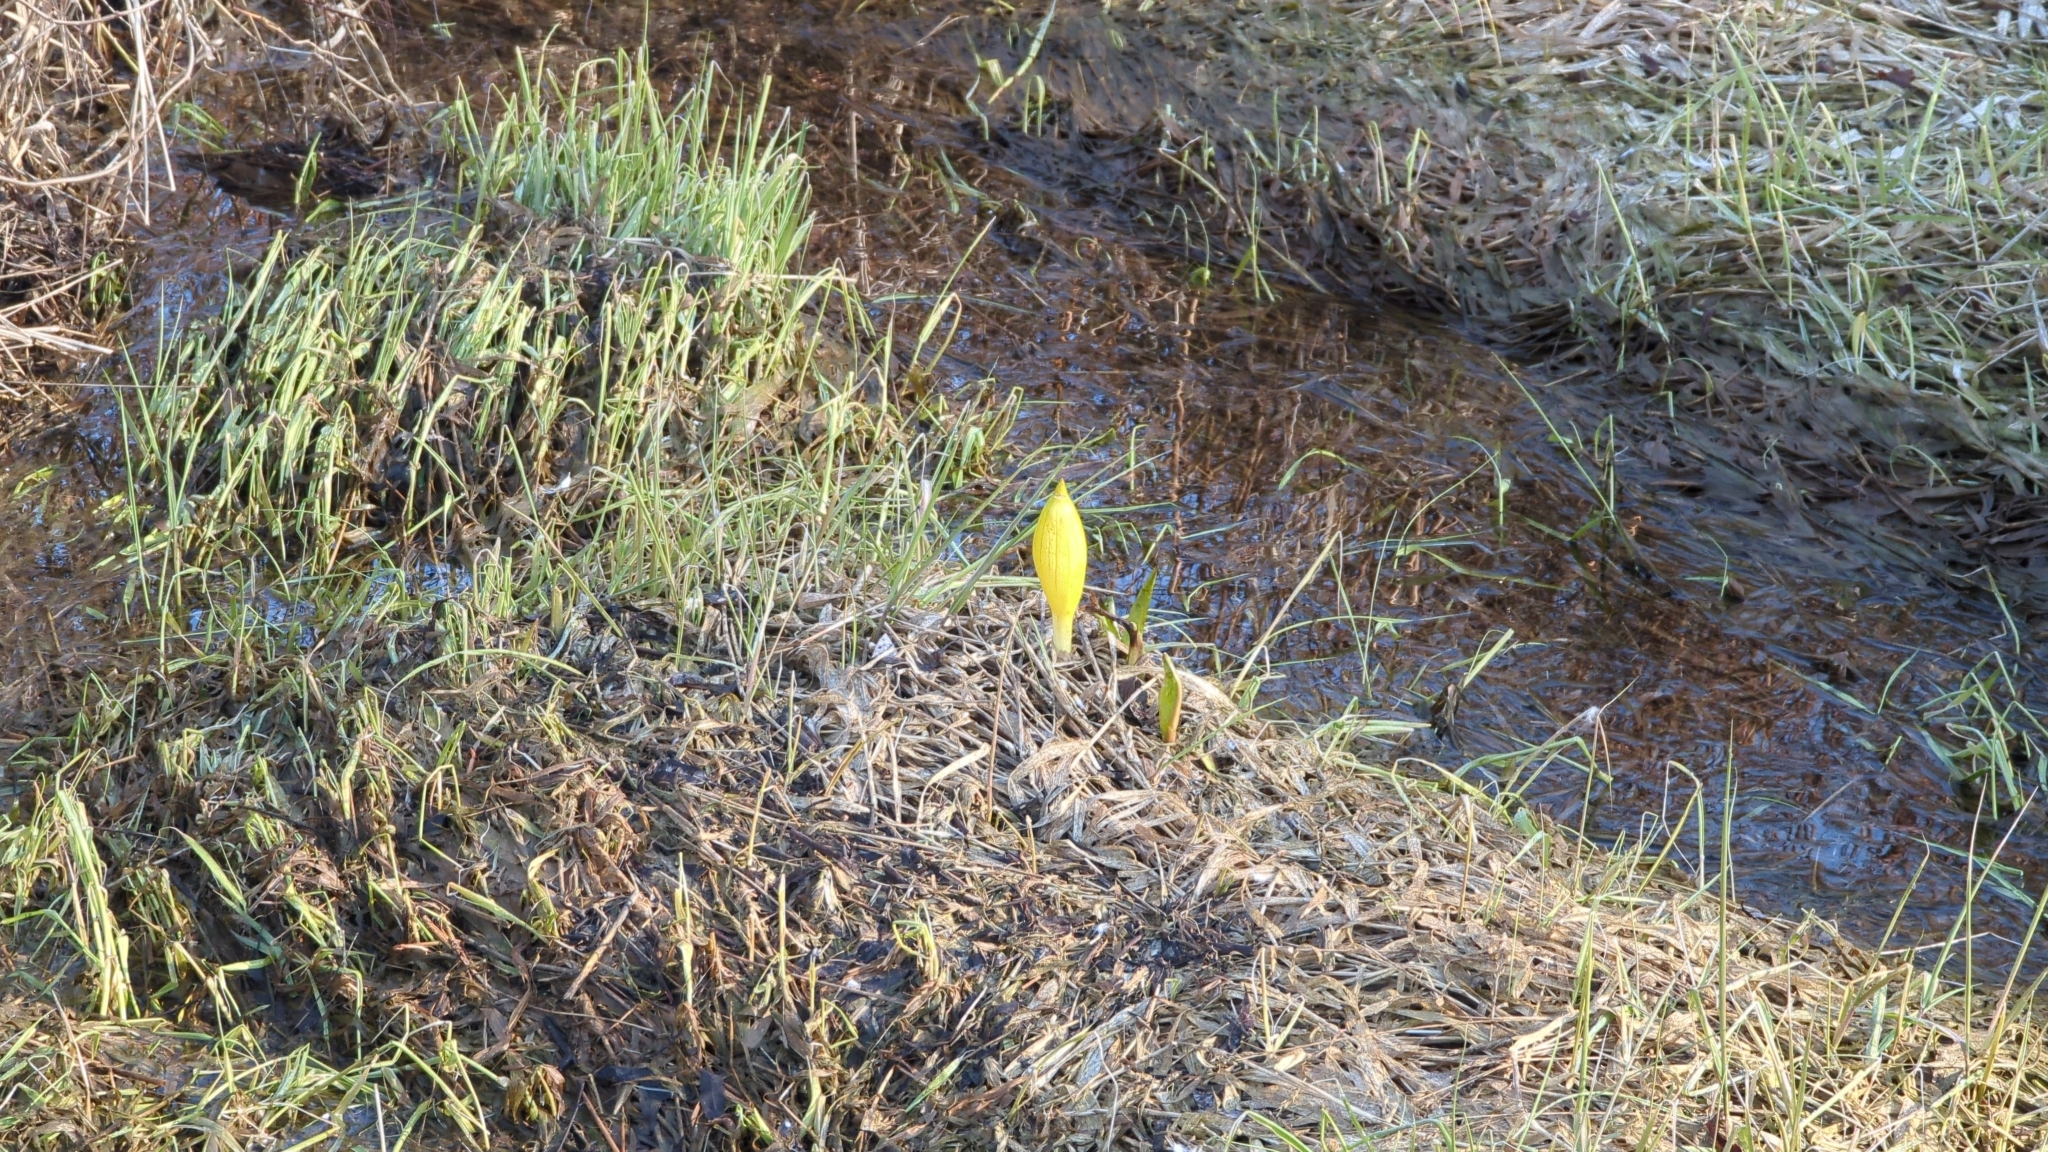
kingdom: Plantae
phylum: Tracheophyta
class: Liliopsida
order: Alismatales
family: Araceae
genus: Lysichiton
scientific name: Lysichiton americanus
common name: American skunk cabbage
